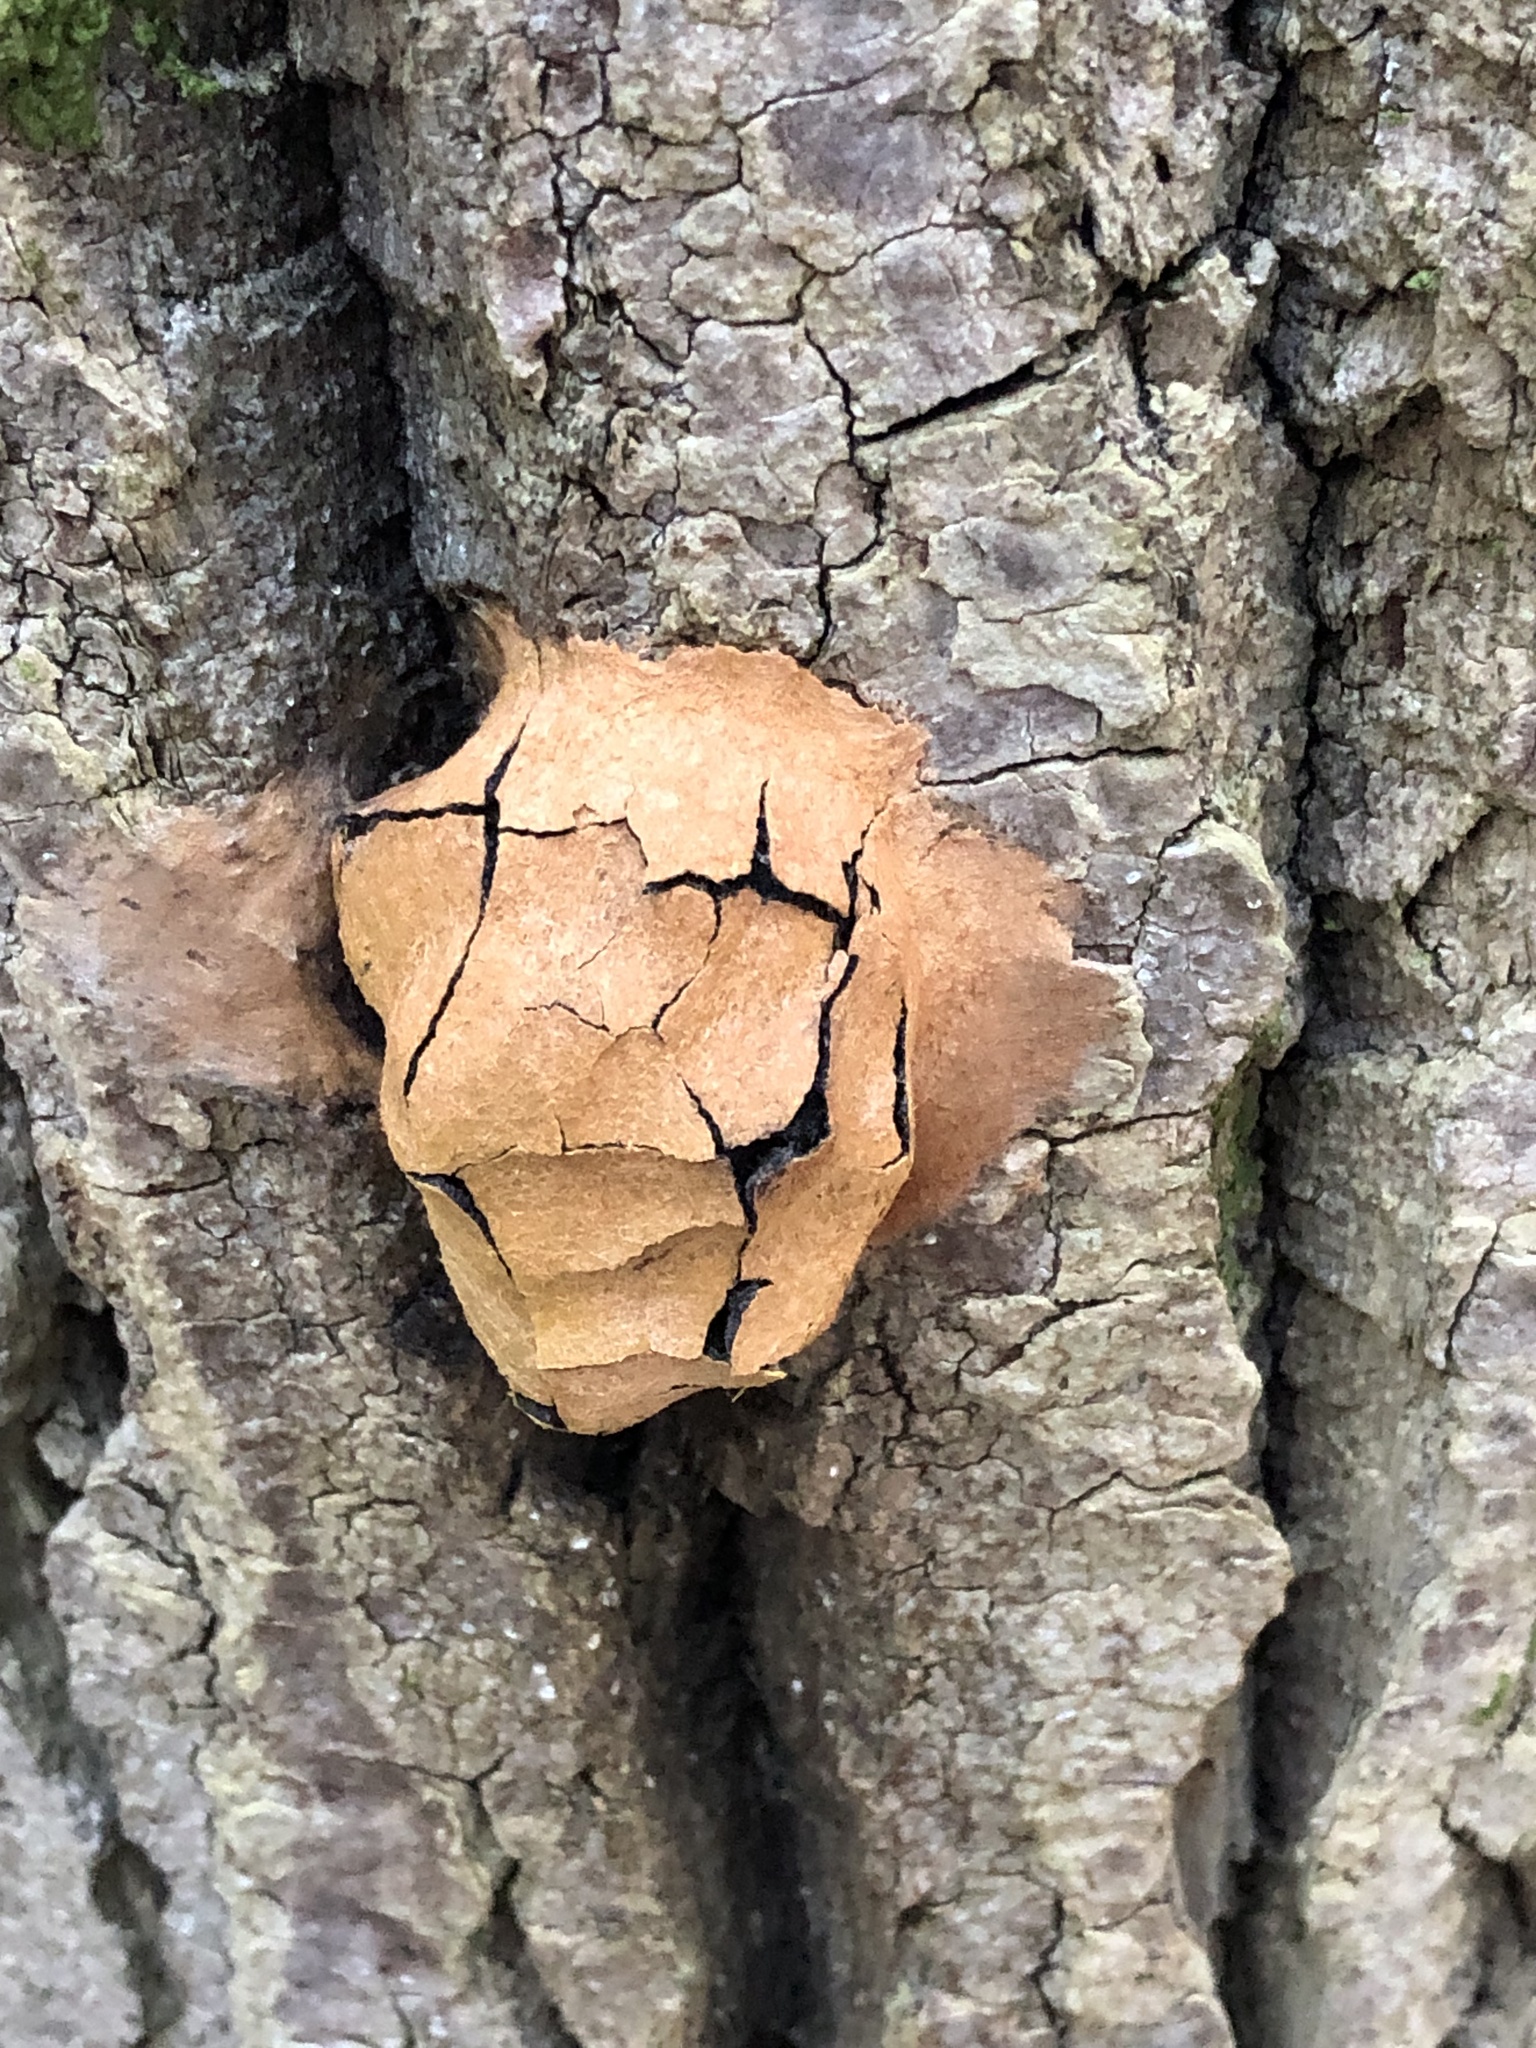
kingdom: Protozoa
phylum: Mycetozoa
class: Myxomycetes
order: Physarales
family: Physaraceae
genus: Fuligo
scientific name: Fuligo leviderma
